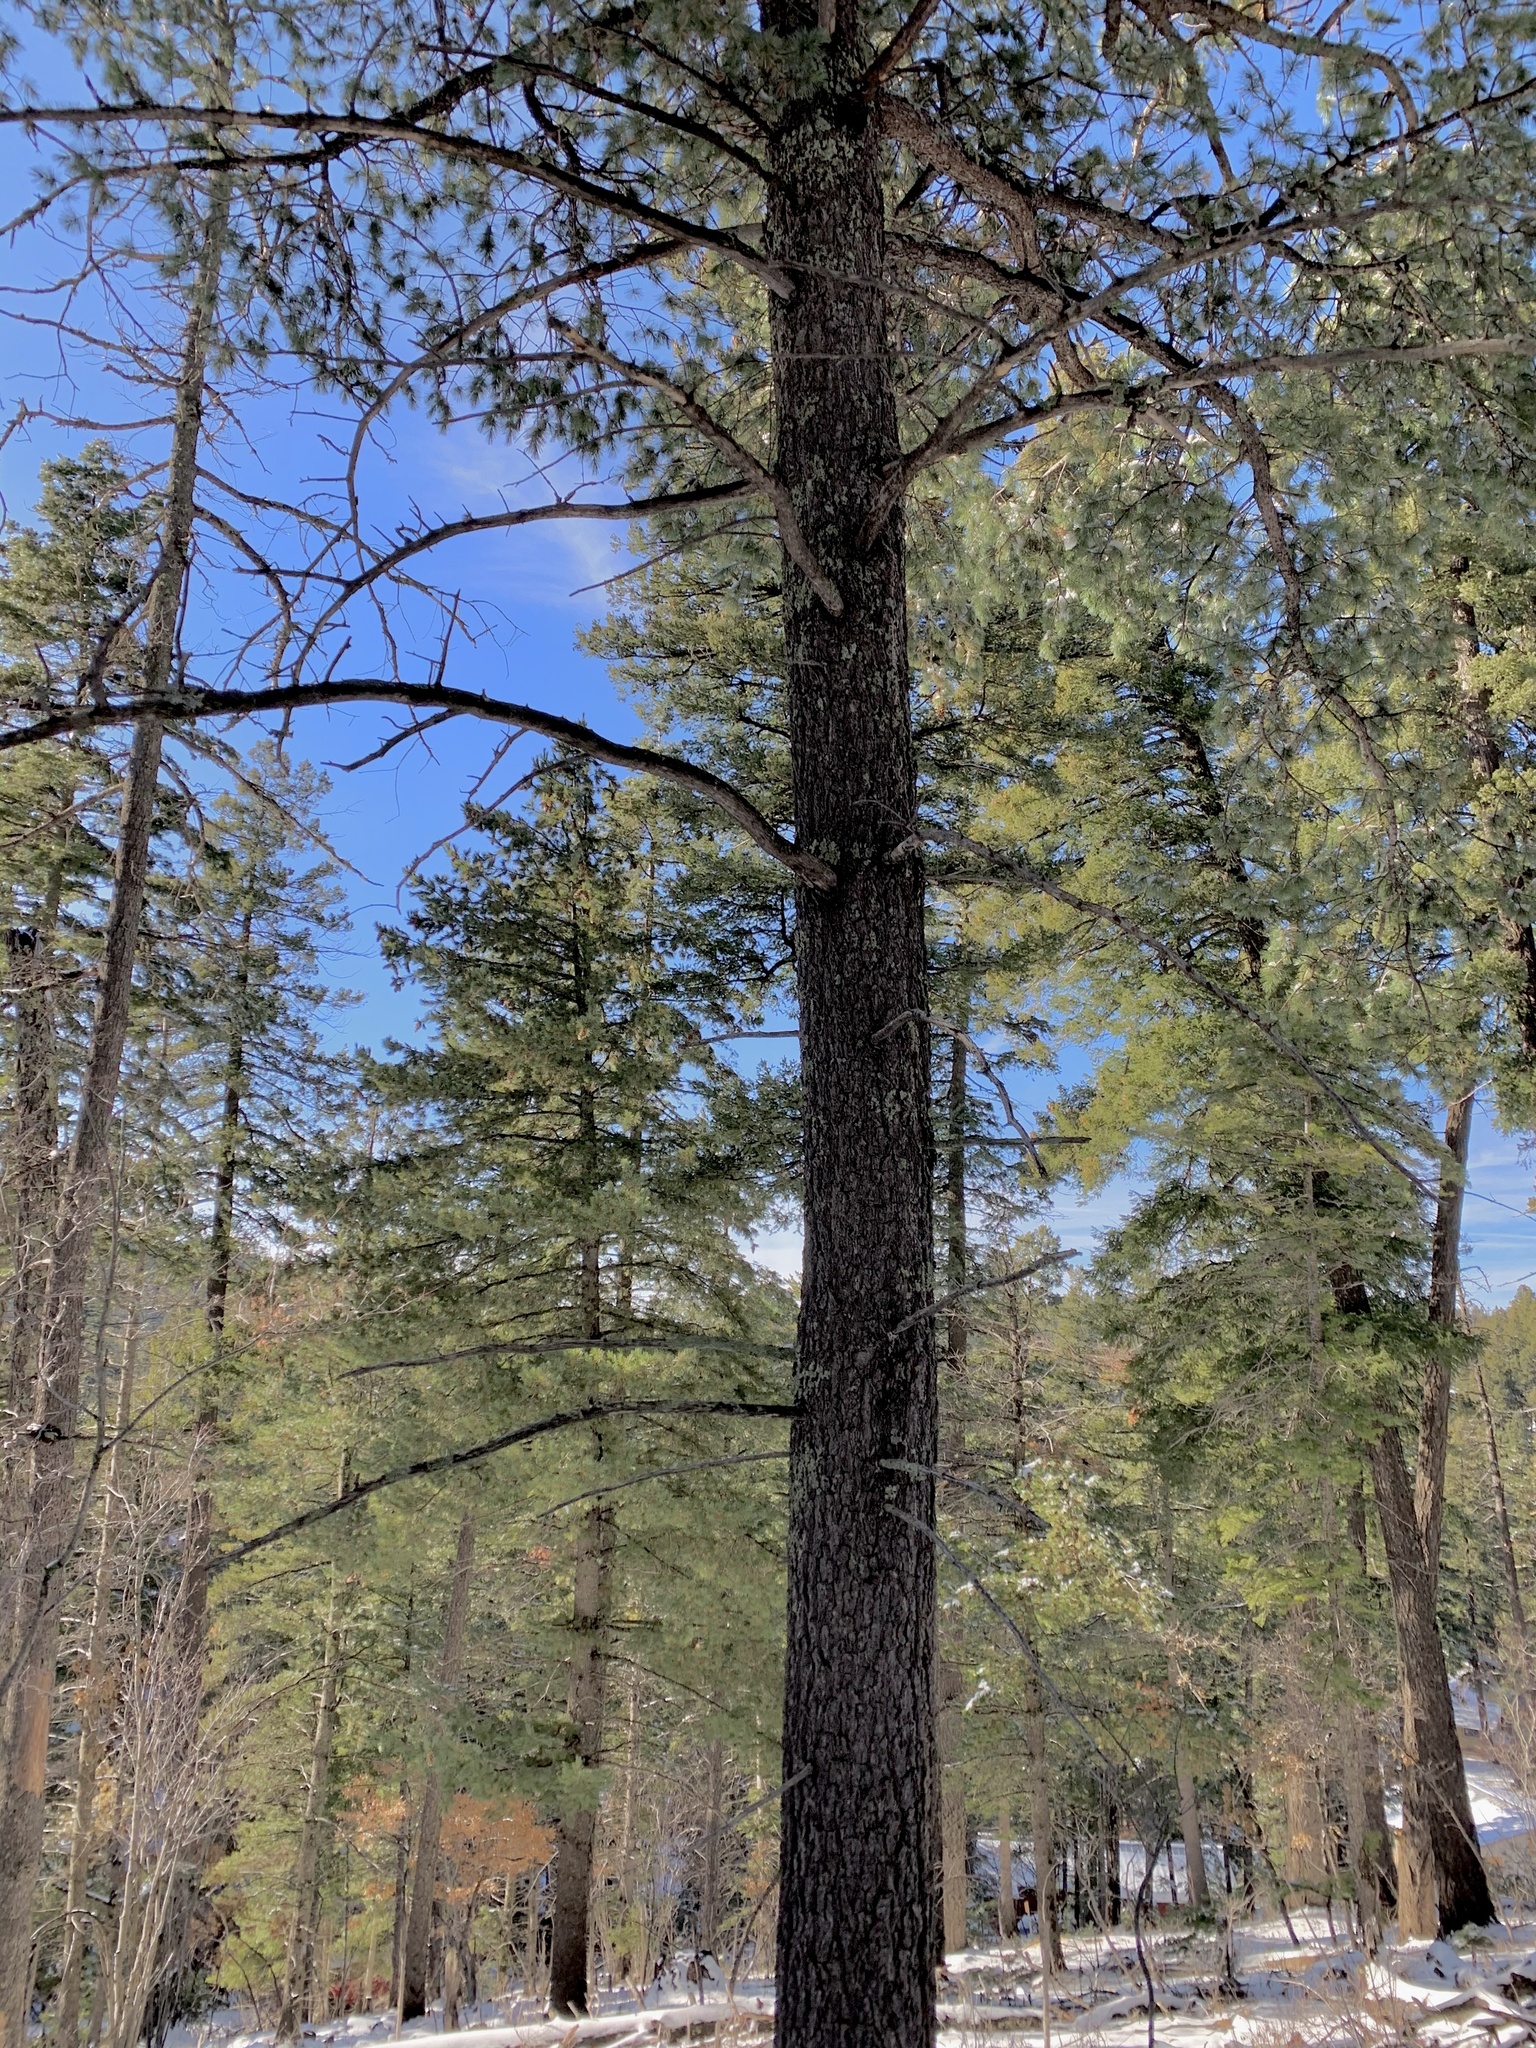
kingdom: Plantae
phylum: Tracheophyta
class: Pinopsida
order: Pinales
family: Pinaceae
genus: Pinus
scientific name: Pinus strobiformis
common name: Southwestern white pine
